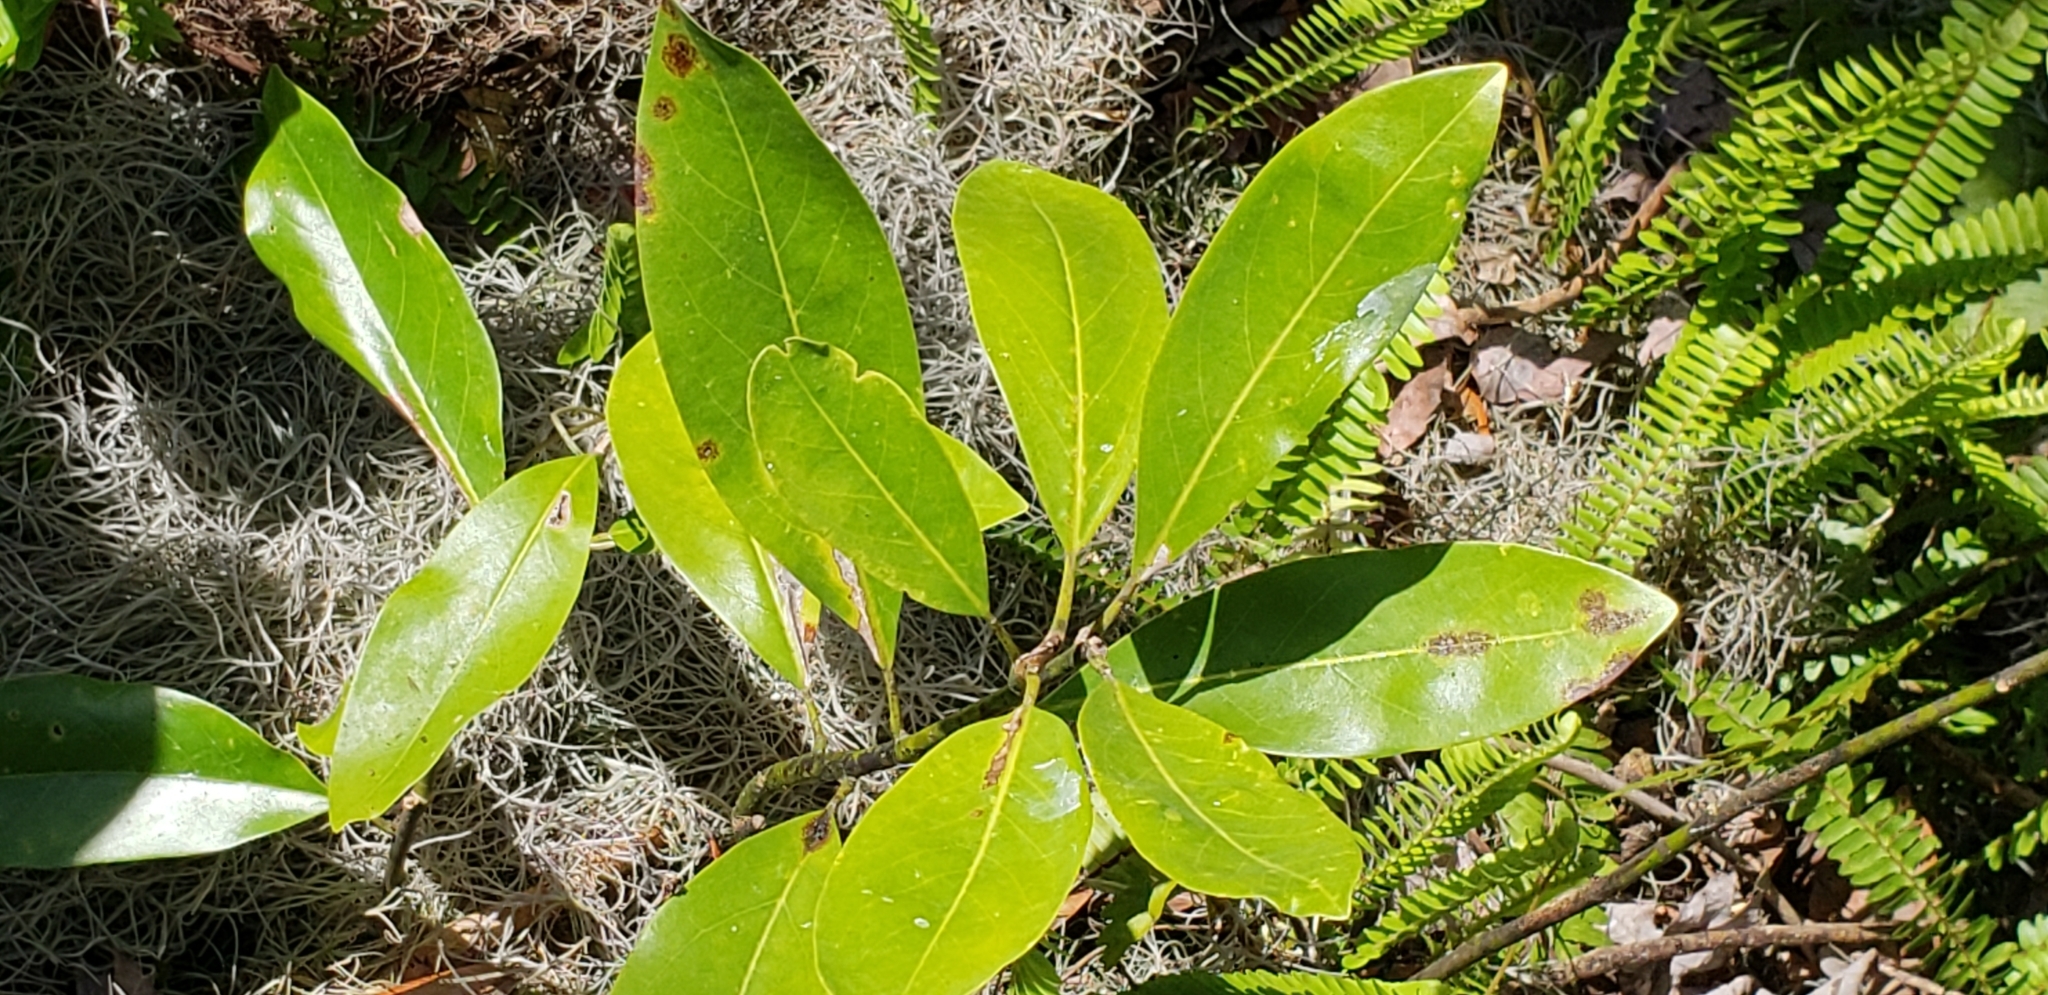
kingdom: Plantae
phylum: Tracheophyta
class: Magnoliopsida
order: Magnoliales
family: Magnoliaceae
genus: Magnolia
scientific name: Magnolia virginiana
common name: Swamp bay
